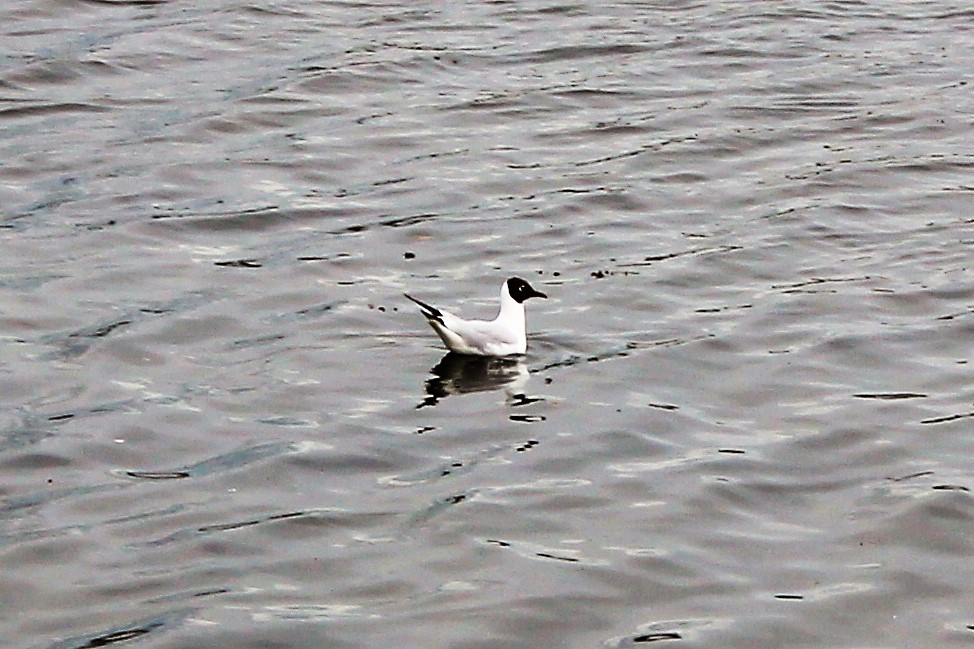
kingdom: Animalia
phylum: Chordata
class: Aves
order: Charadriiformes
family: Laridae
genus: Chroicocephalus
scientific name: Chroicocephalus ridibundus
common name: Black-headed gull
